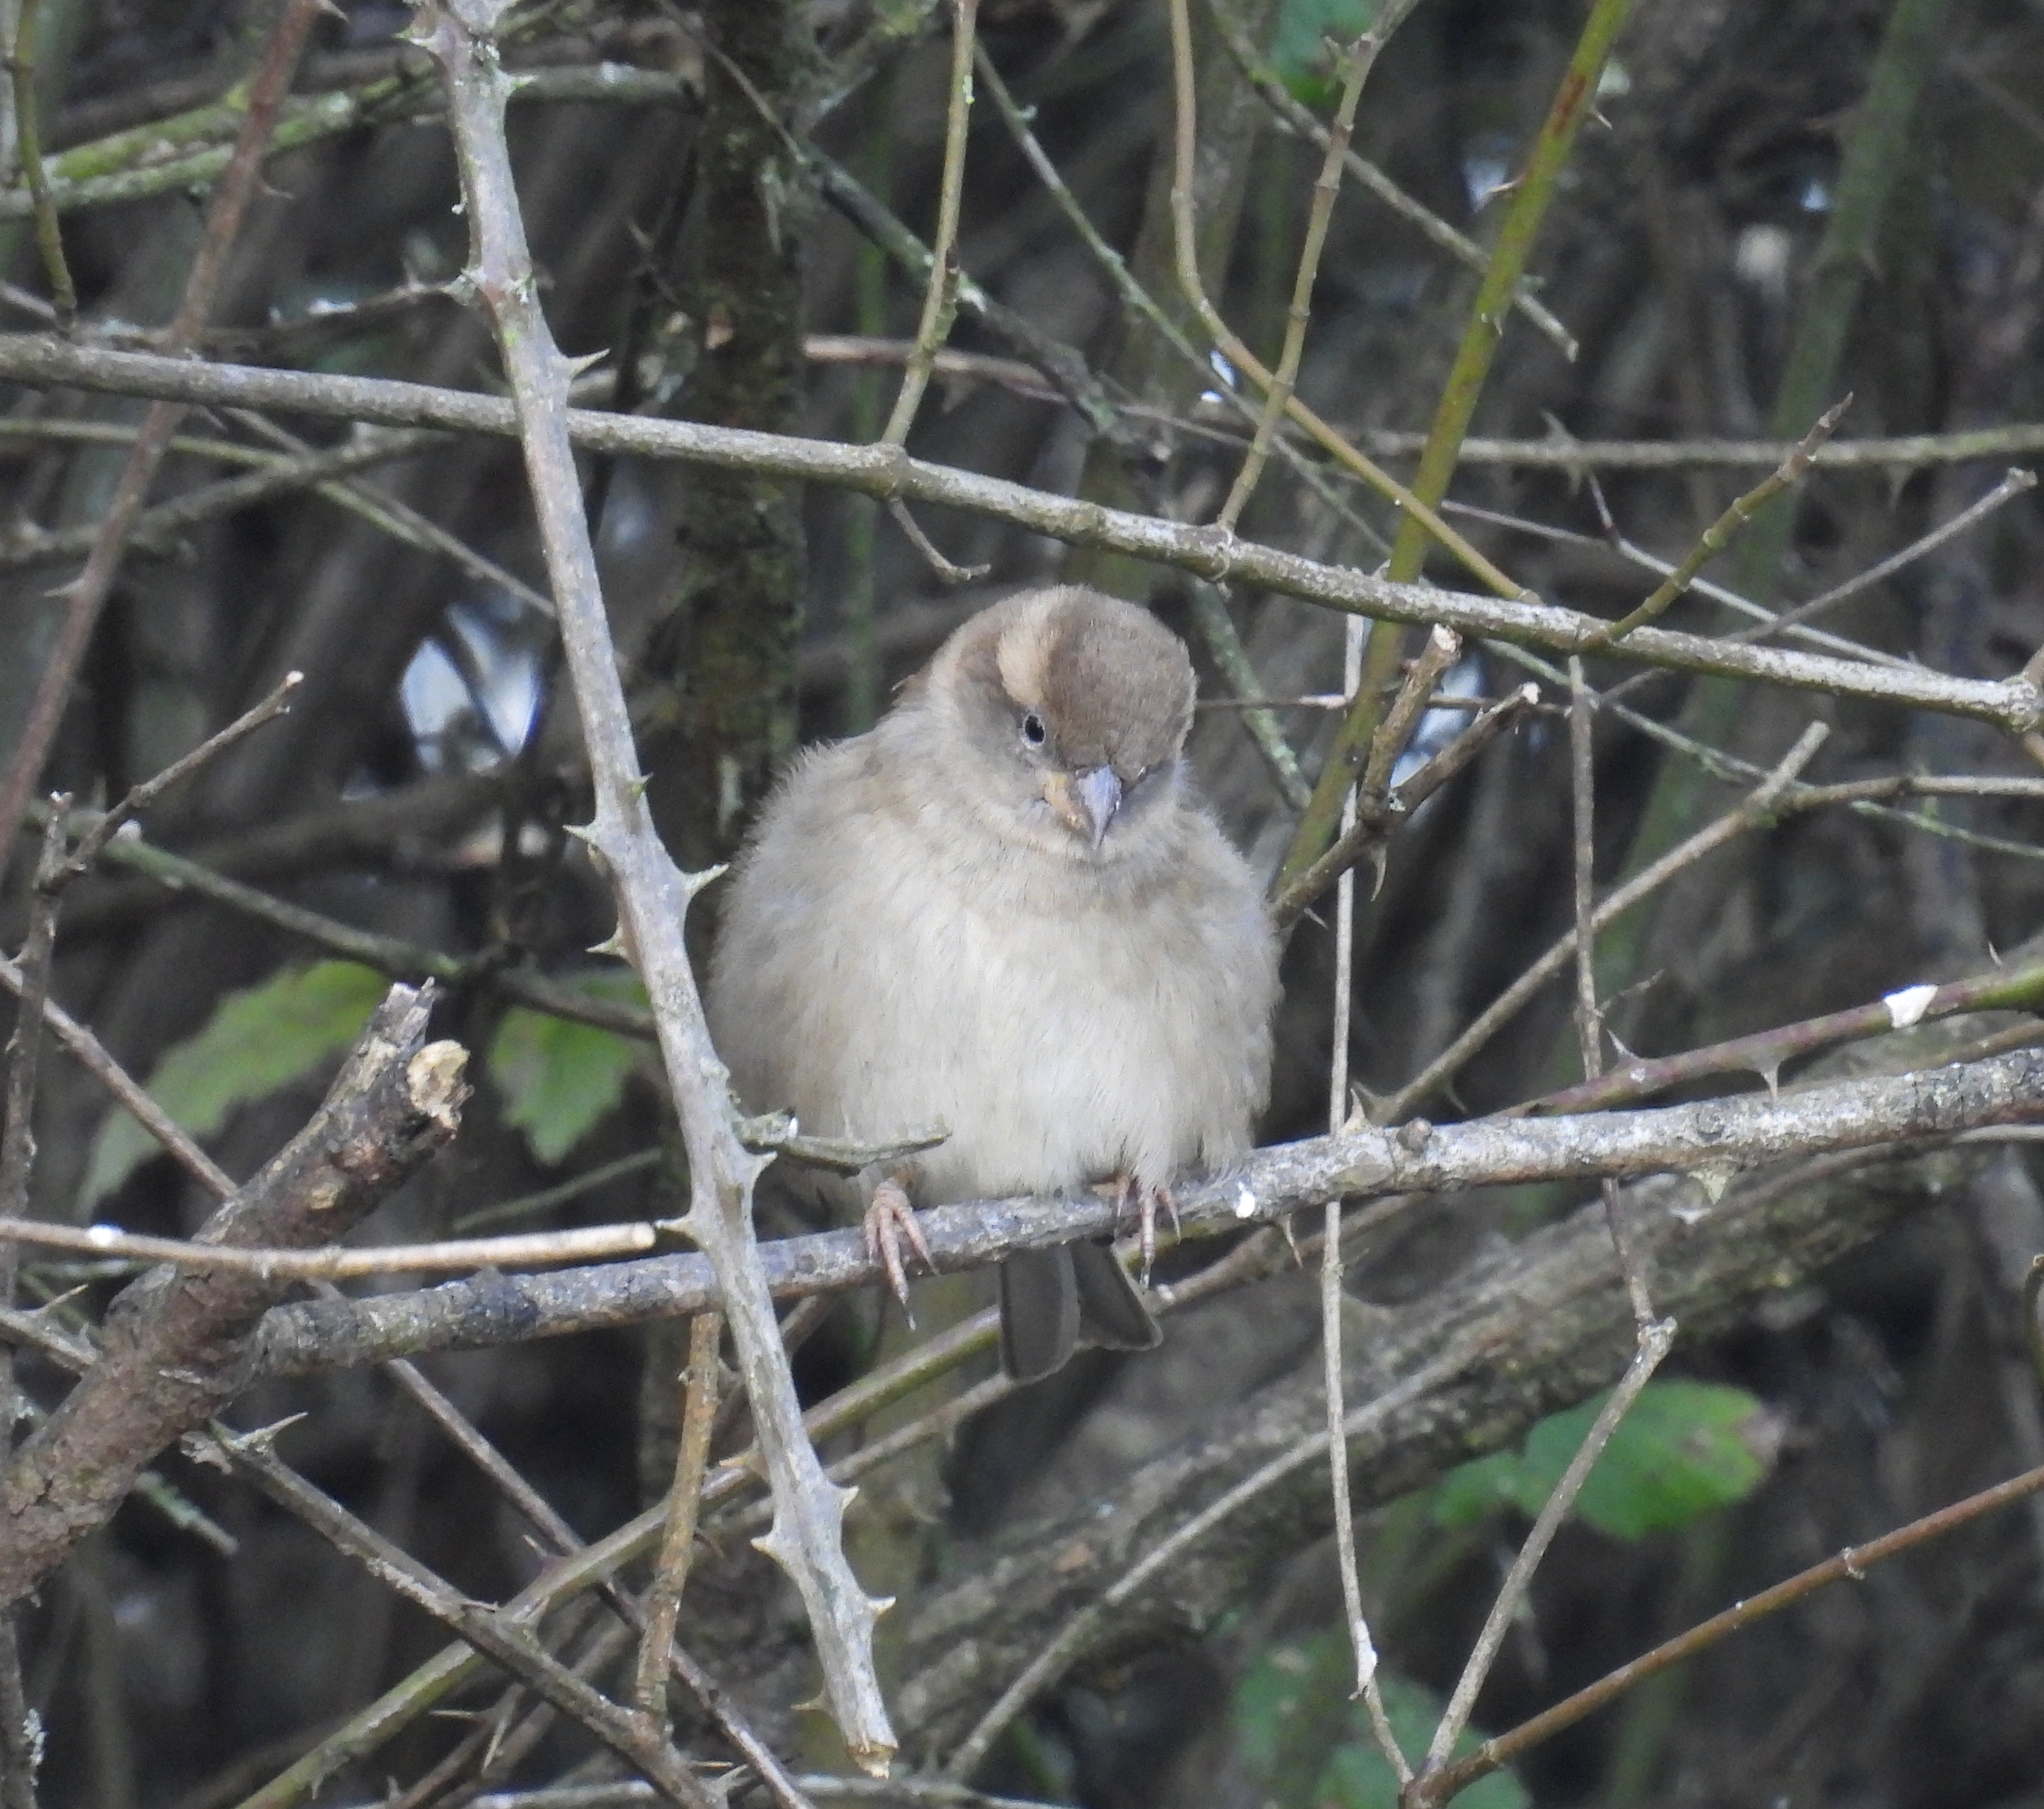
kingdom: Animalia
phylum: Chordata
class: Aves
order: Passeriformes
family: Passeridae
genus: Passer
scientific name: Passer domesticus
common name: House sparrow
